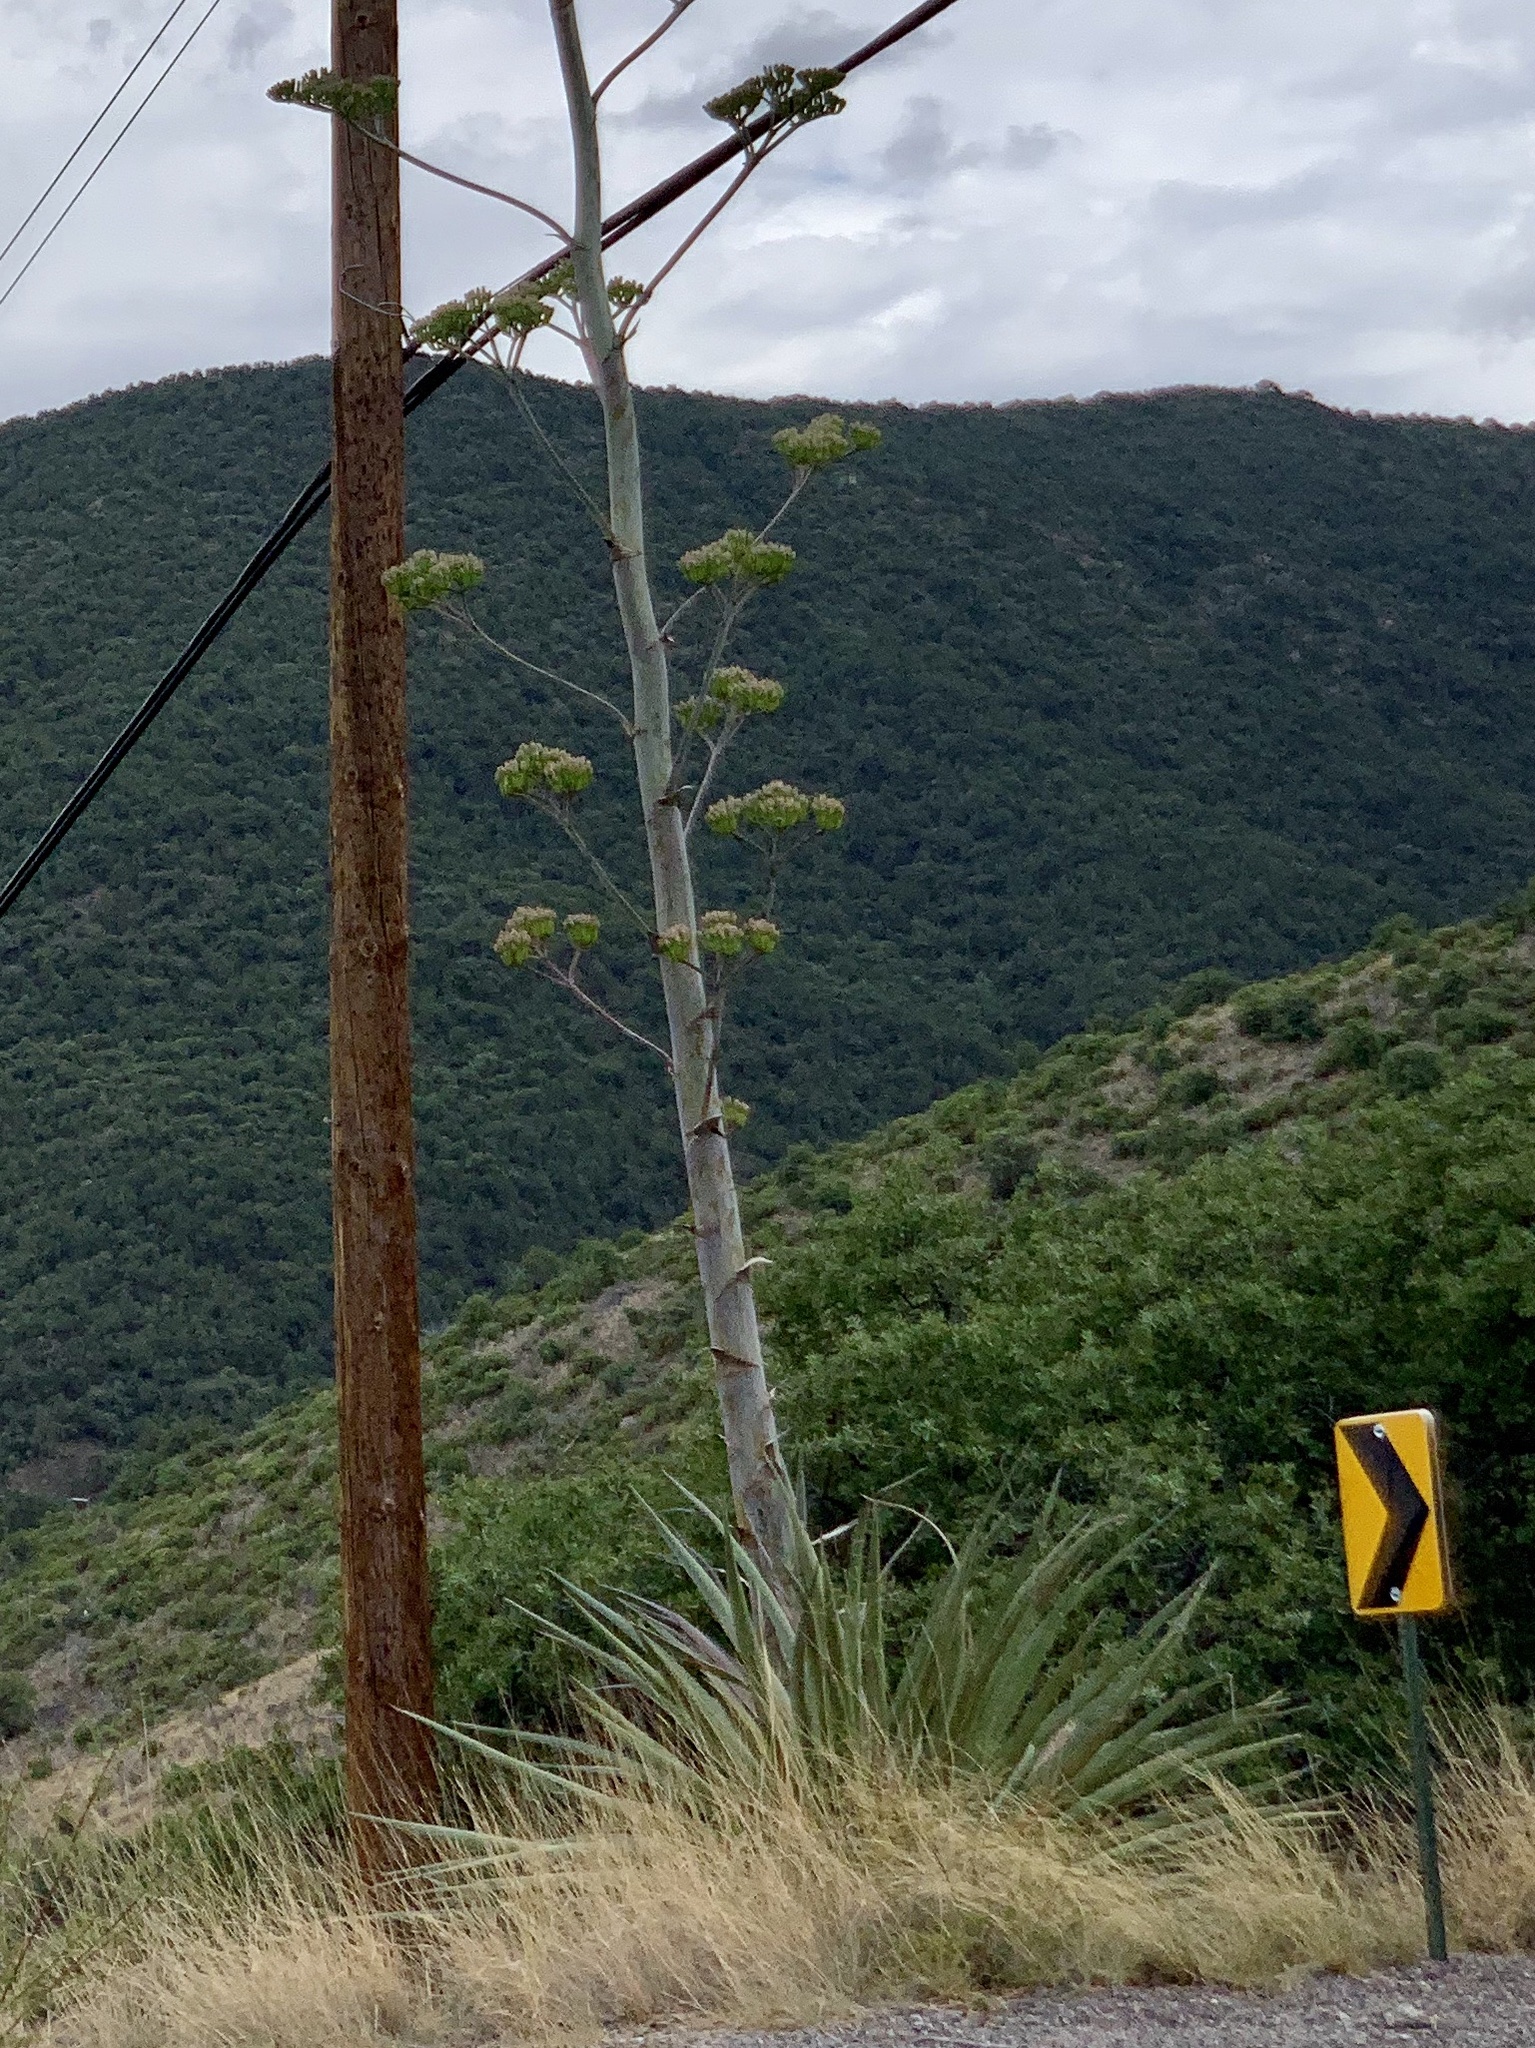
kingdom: Plantae
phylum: Tracheophyta
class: Liliopsida
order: Asparagales
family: Asparagaceae
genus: Agave
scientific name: Agave palmeri
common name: Palmer agave
